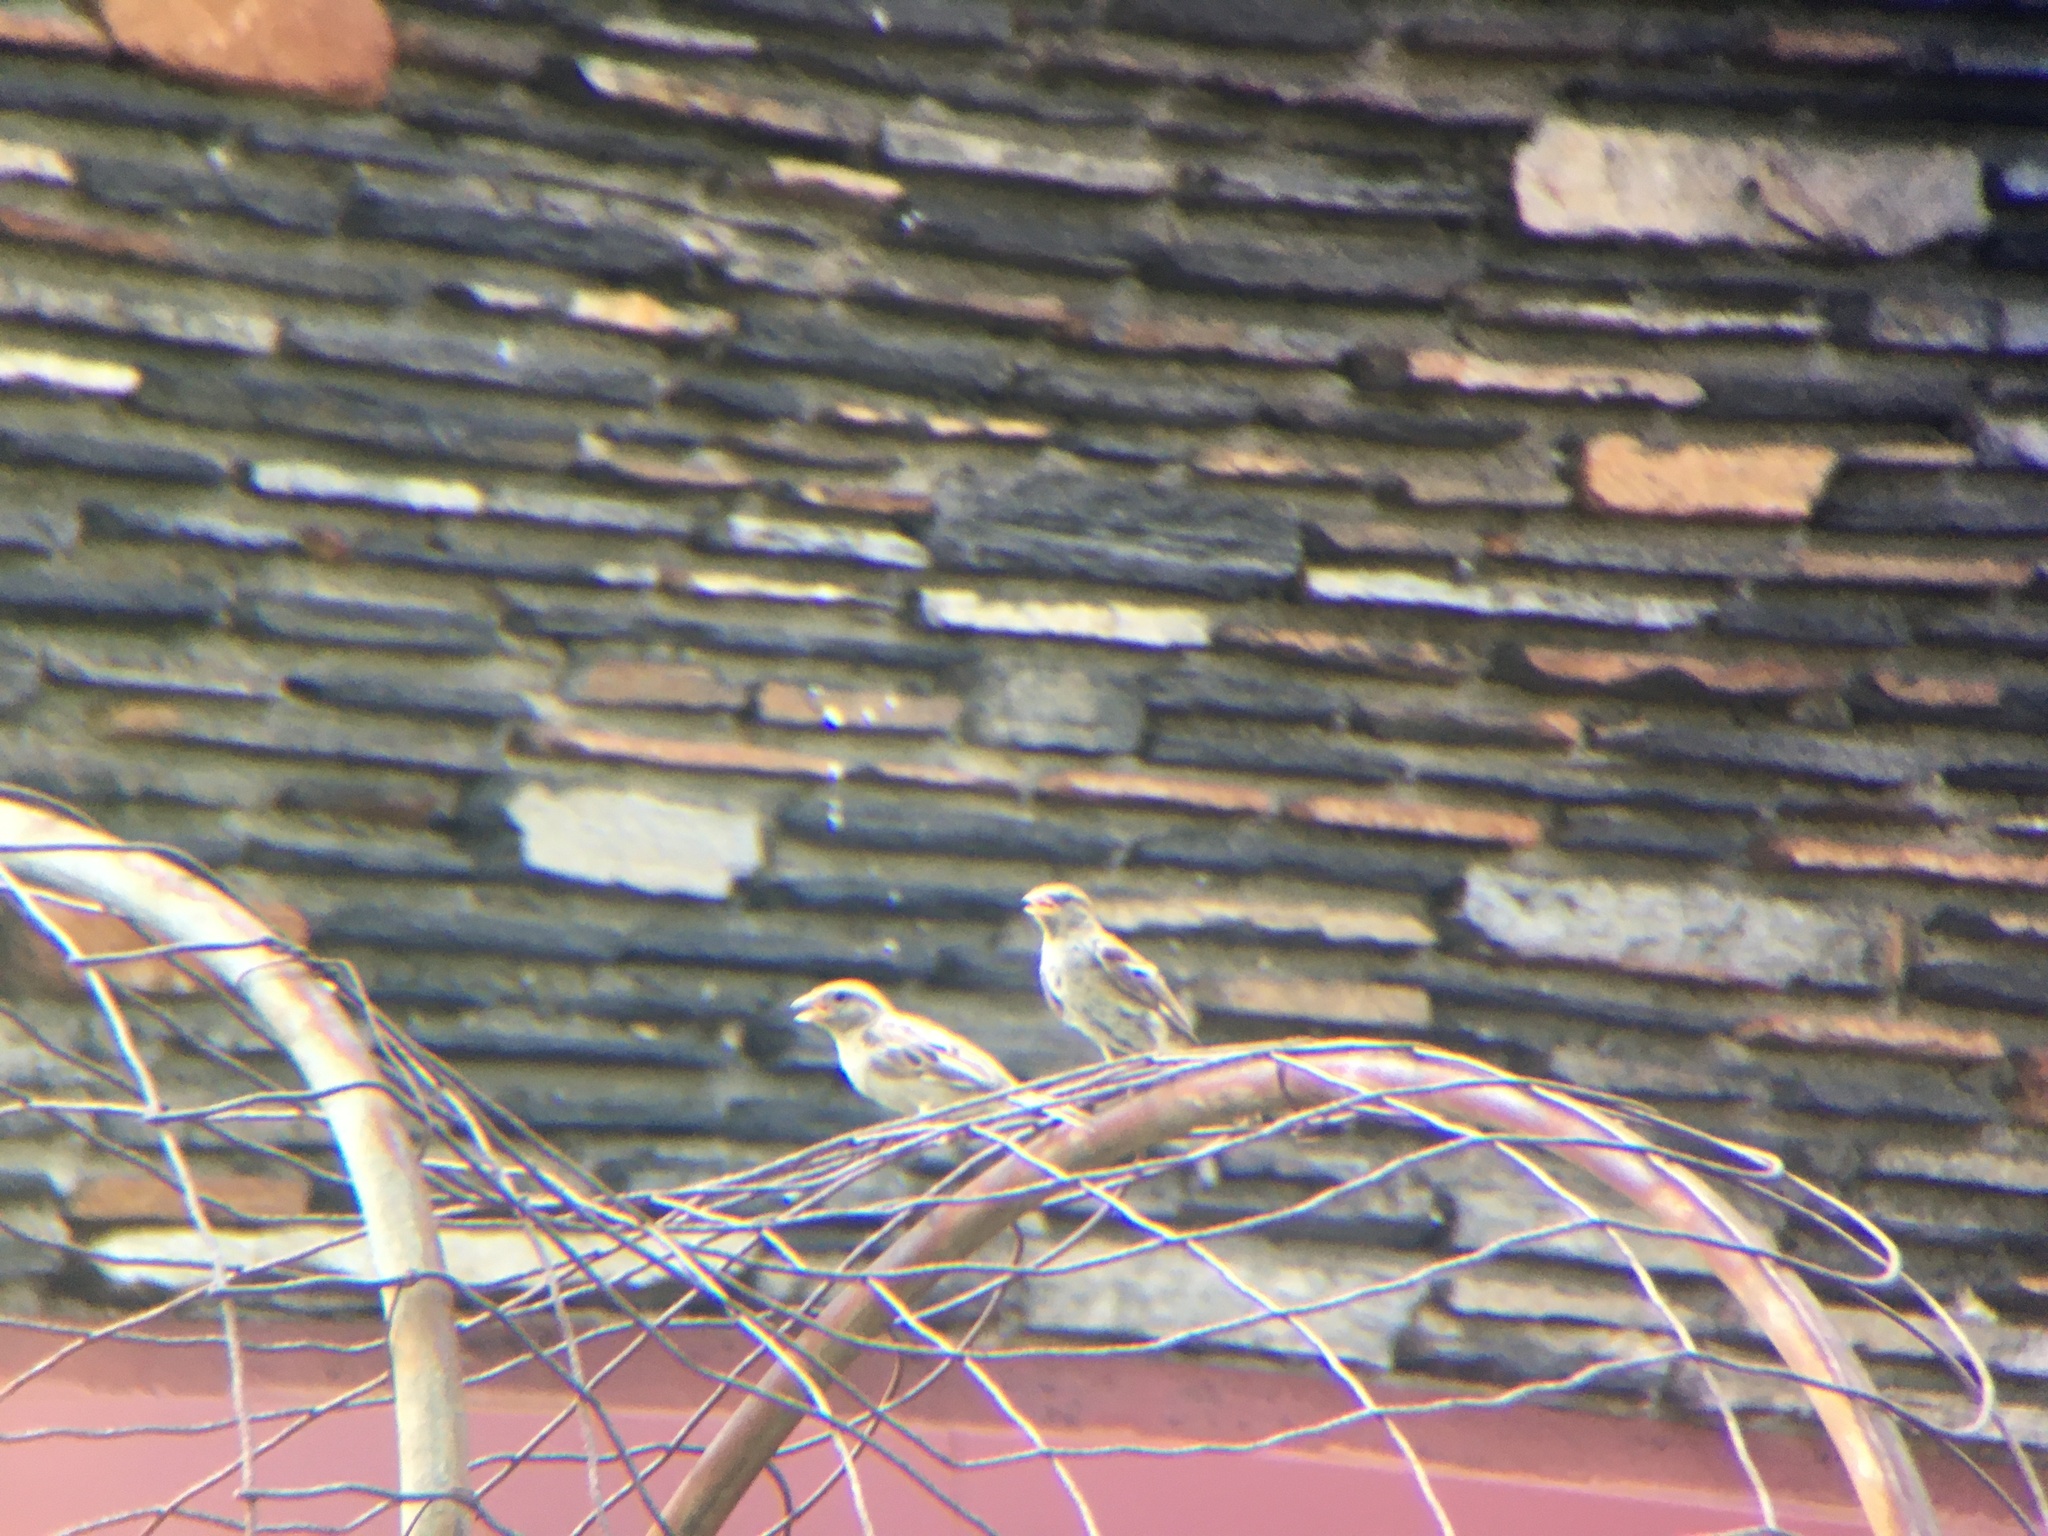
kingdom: Animalia
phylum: Chordata
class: Aves
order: Passeriformes
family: Passeridae
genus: Passer
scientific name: Passer domesticus
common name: House sparrow
